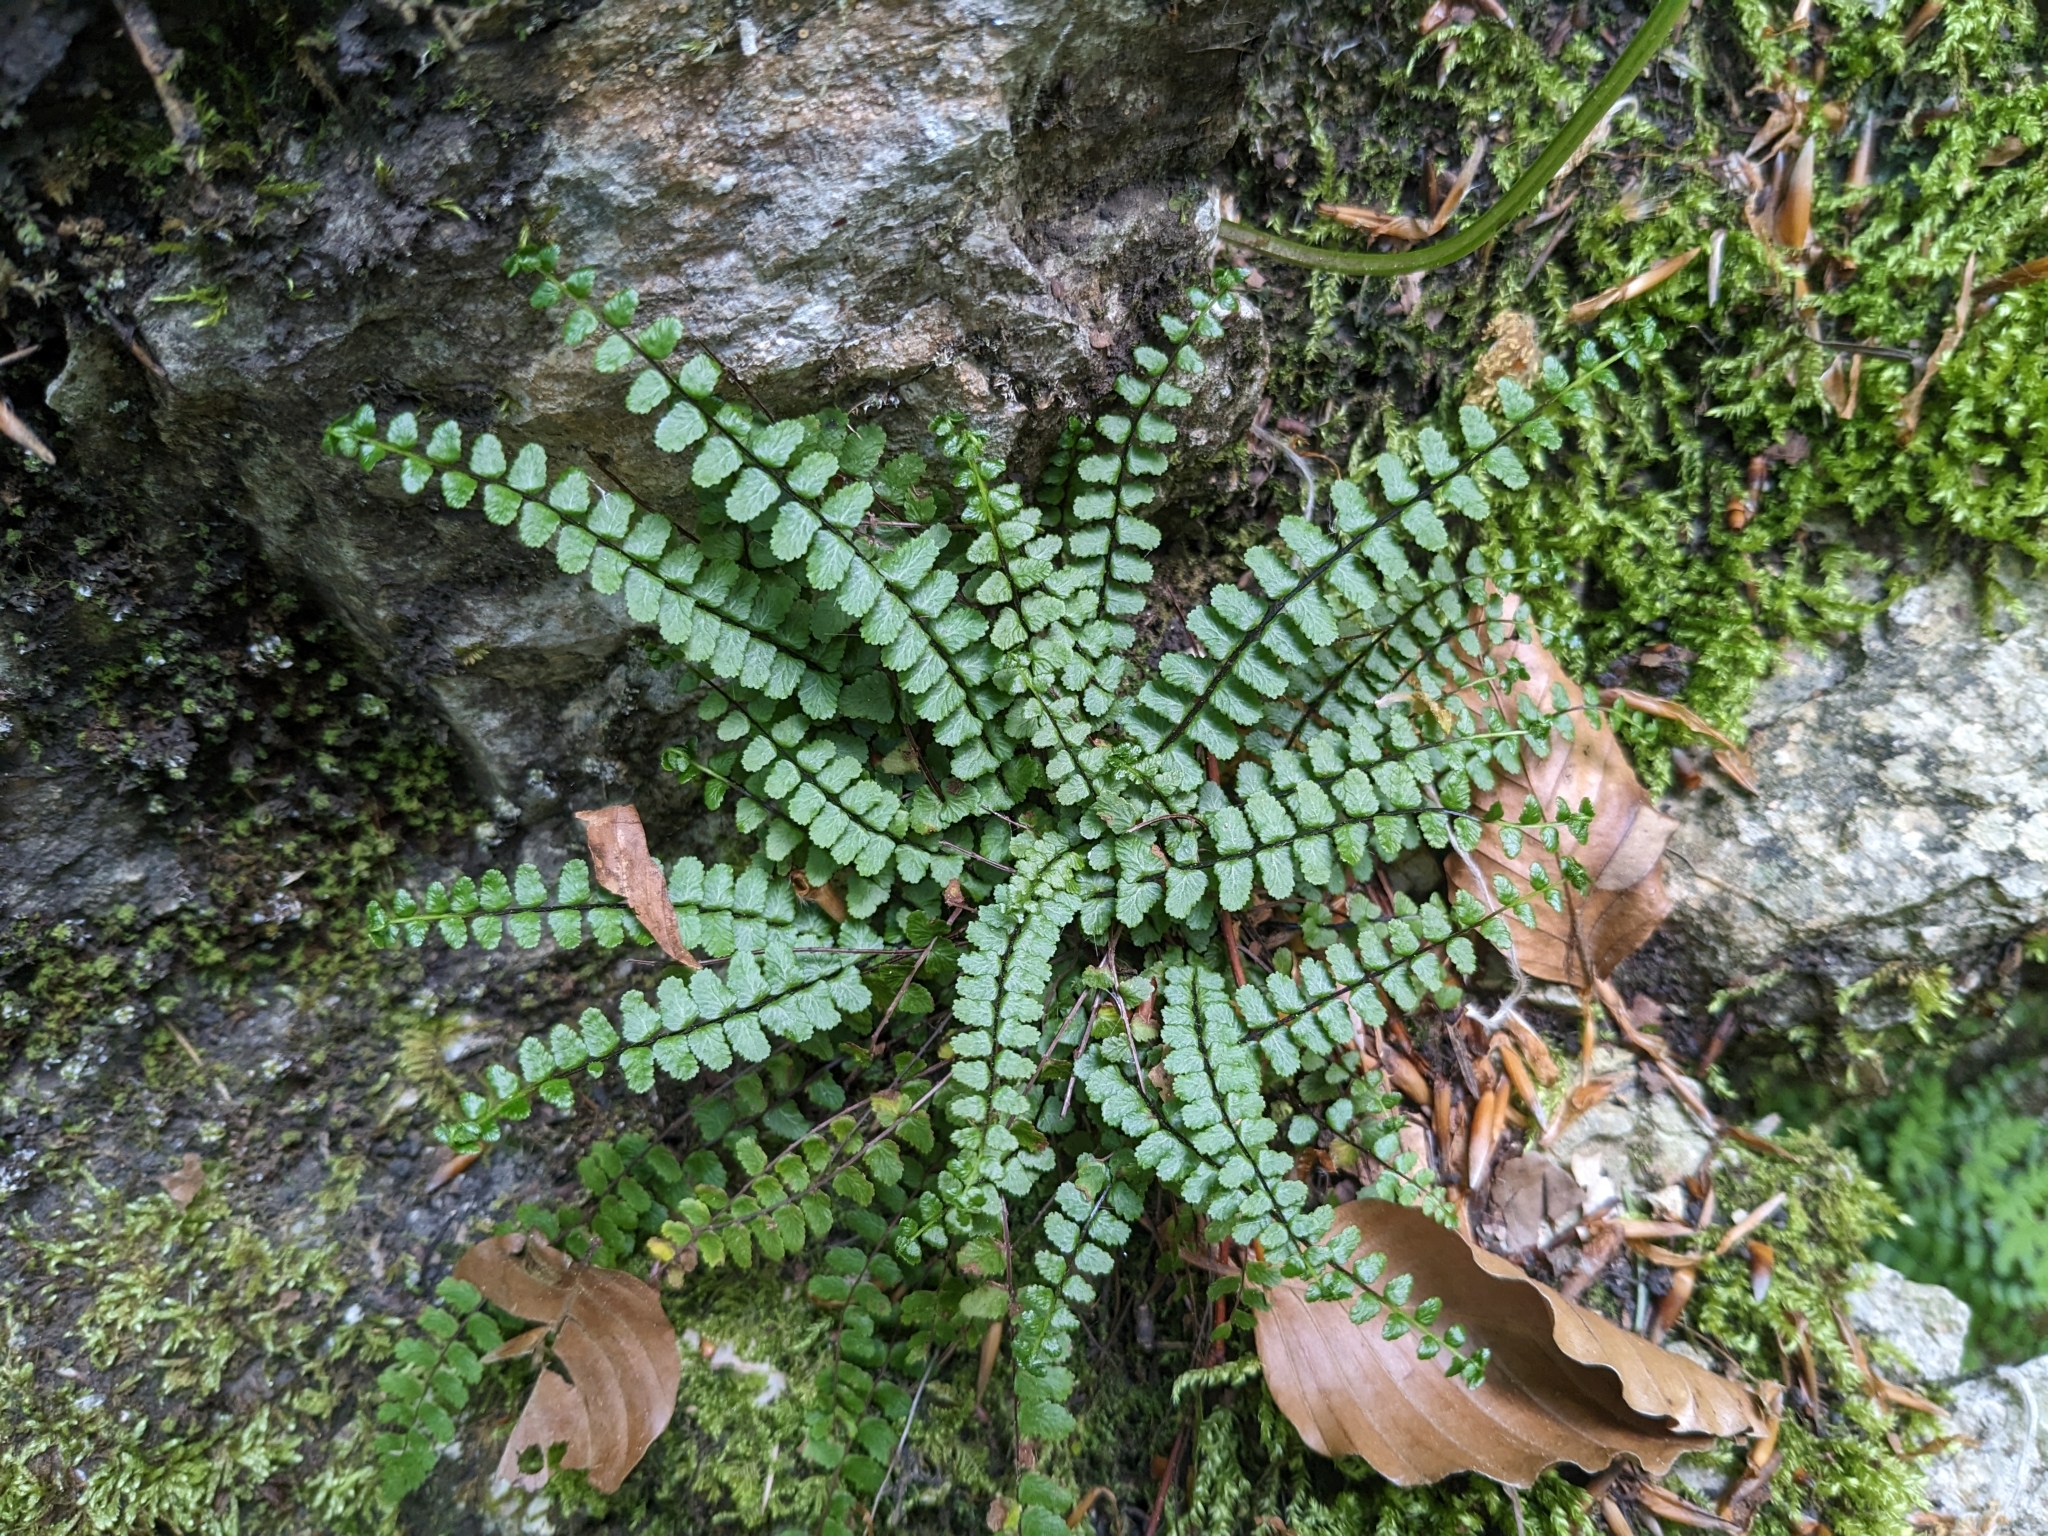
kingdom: Plantae
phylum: Tracheophyta
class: Polypodiopsida
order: Polypodiales
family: Aspleniaceae
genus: Asplenium
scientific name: Asplenium trichomanes
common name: Maidenhair spleenwort
